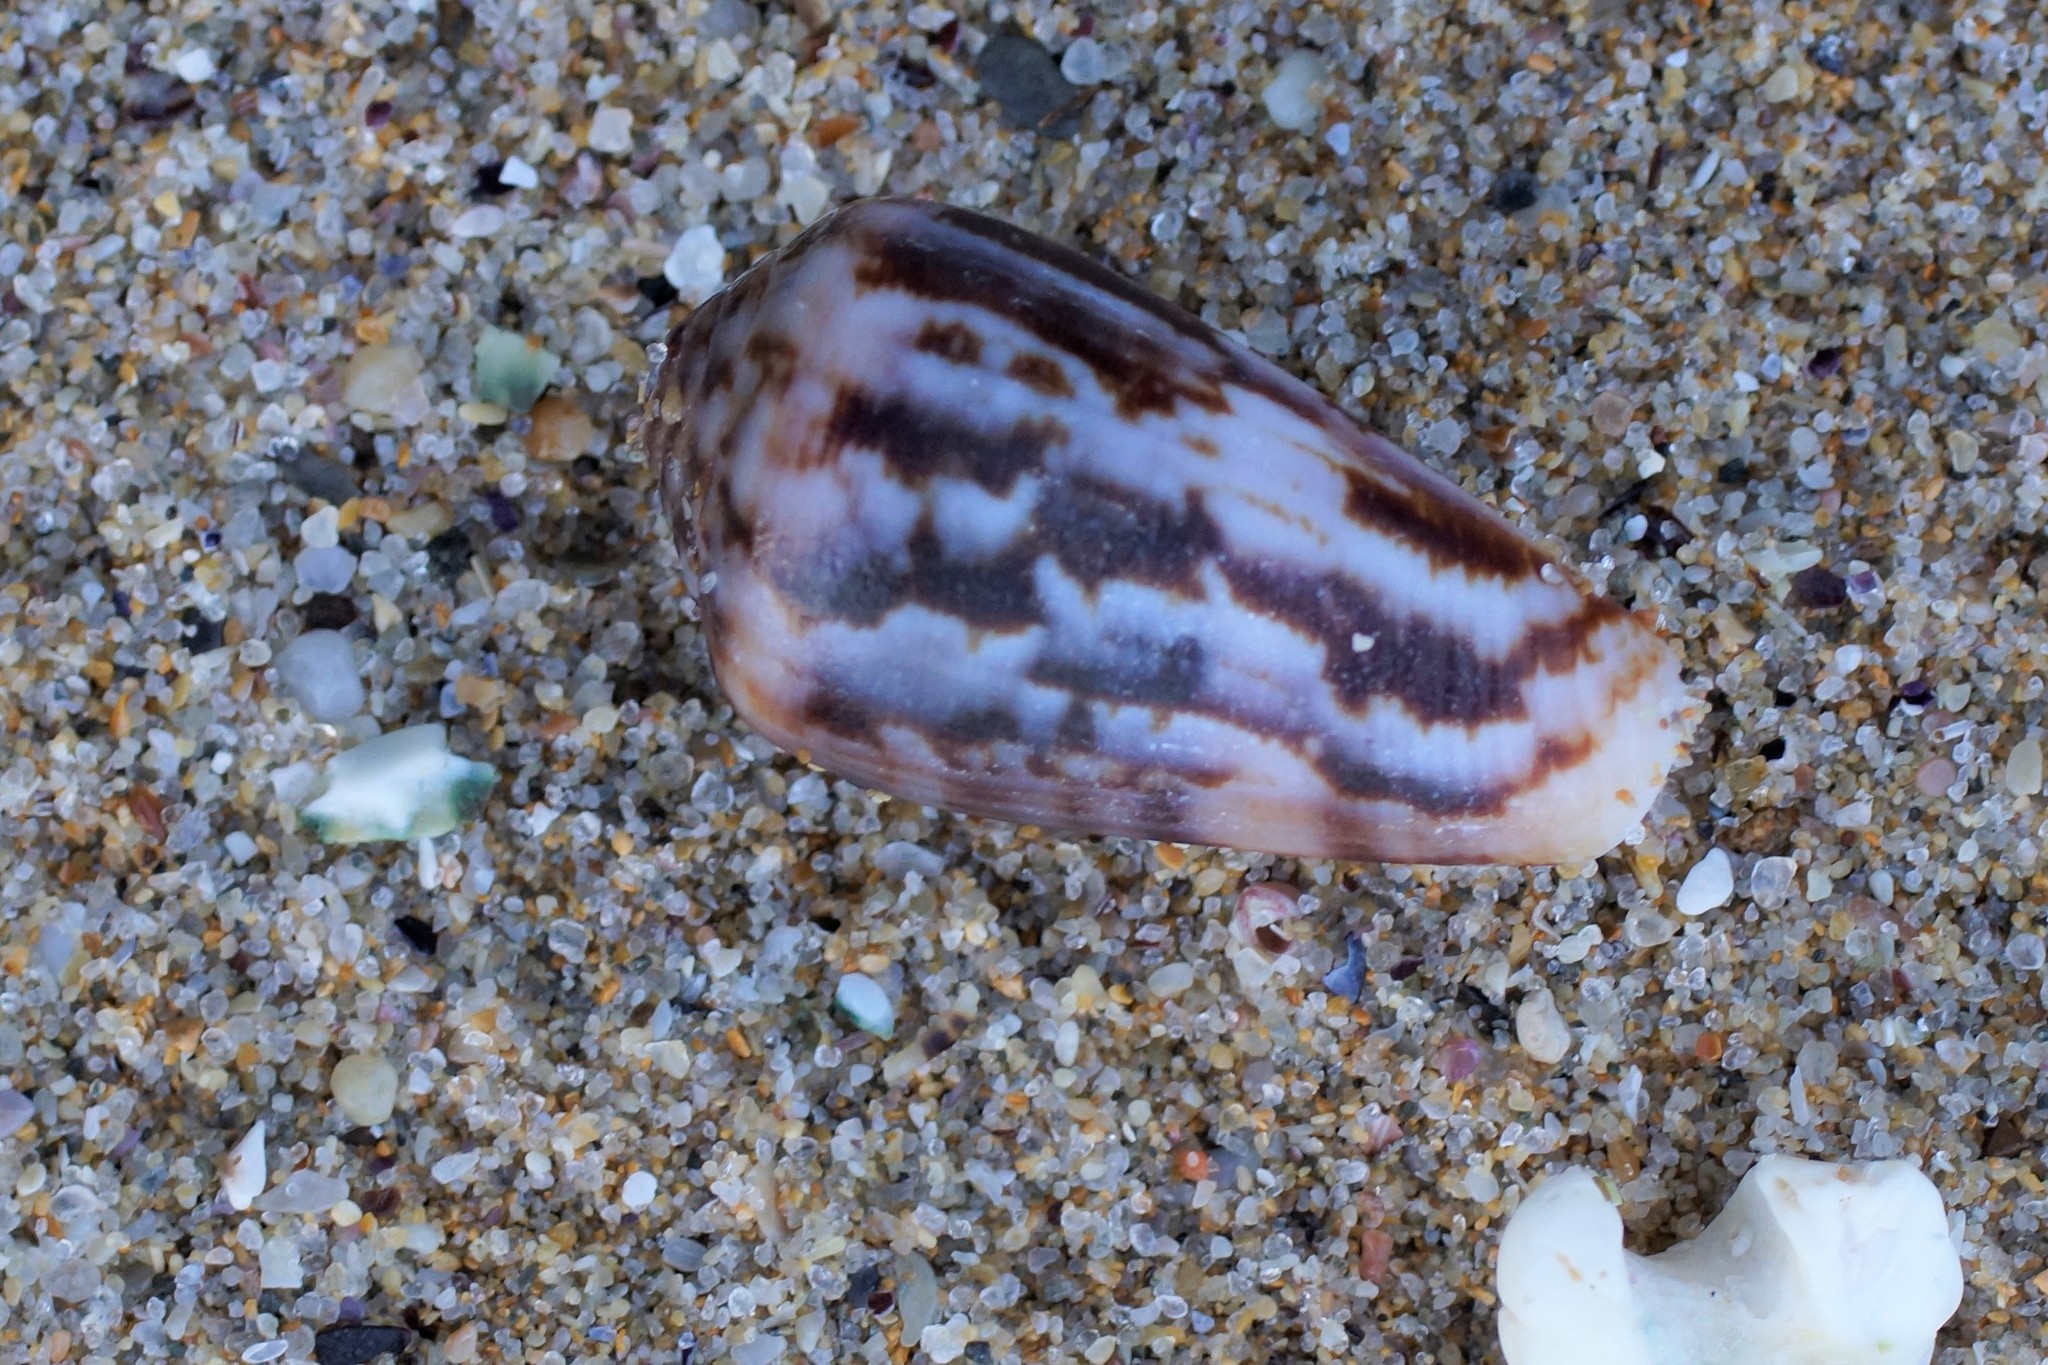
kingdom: Animalia
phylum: Mollusca
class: Gastropoda
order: Neogastropoda
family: Conidae
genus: Conus
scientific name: Conus anemone
